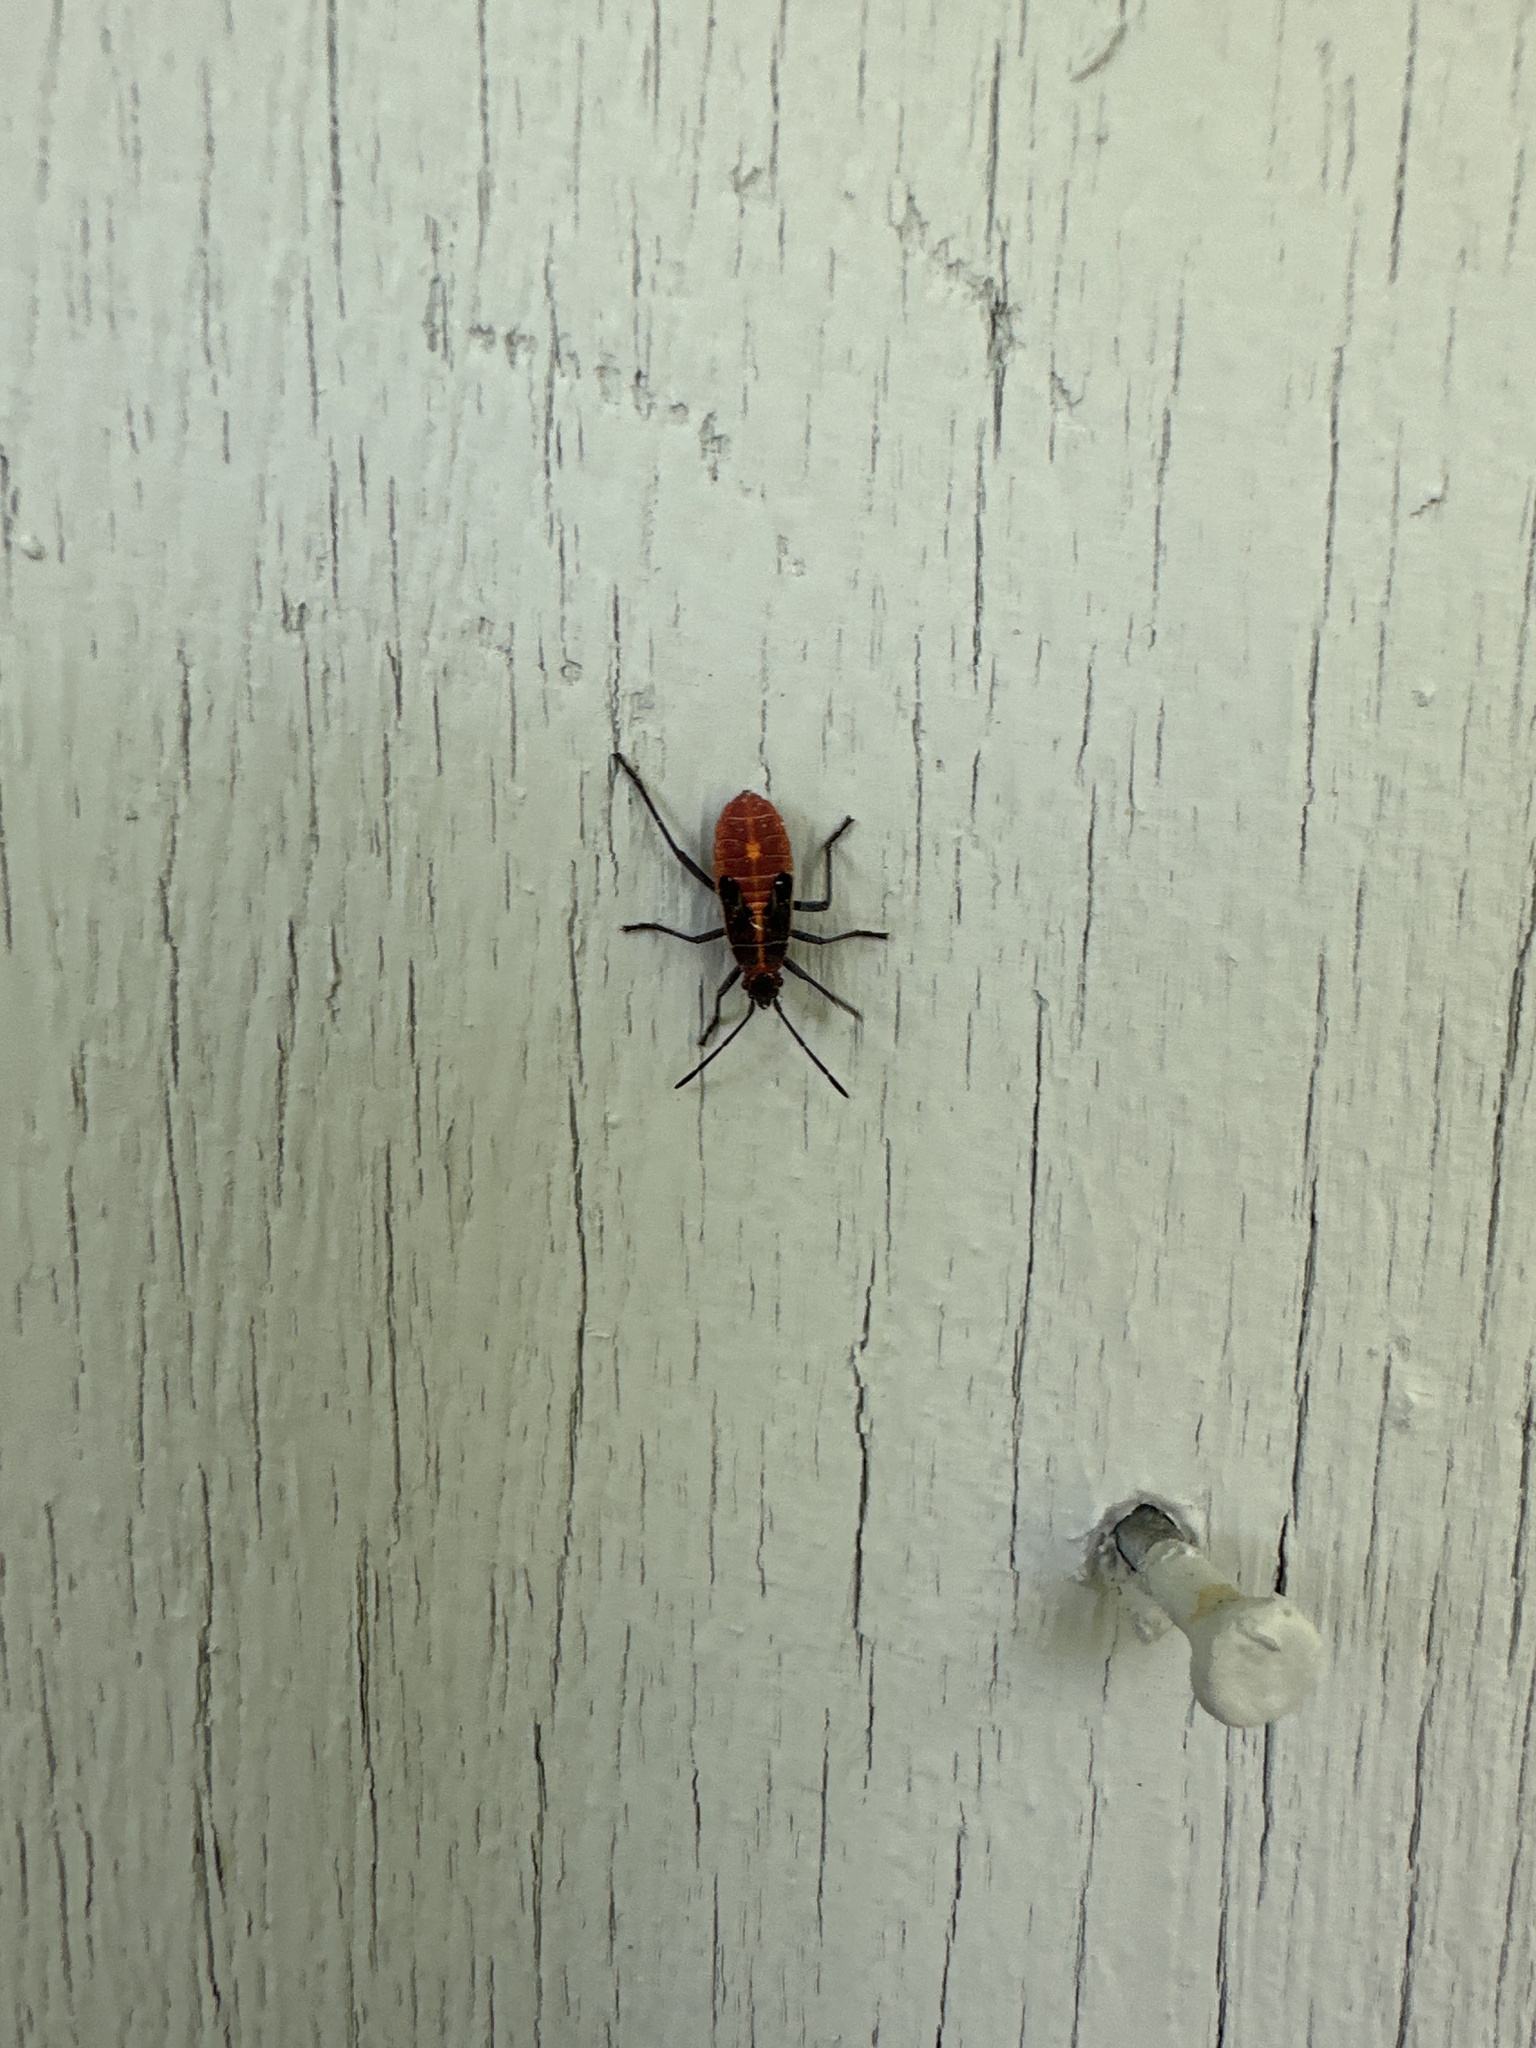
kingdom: Animalia
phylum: Arthropoda
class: Insecta
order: Hemiptera
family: Rhopalidae
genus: Boisea
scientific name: Boisea trivittata
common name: Boxelder bug
